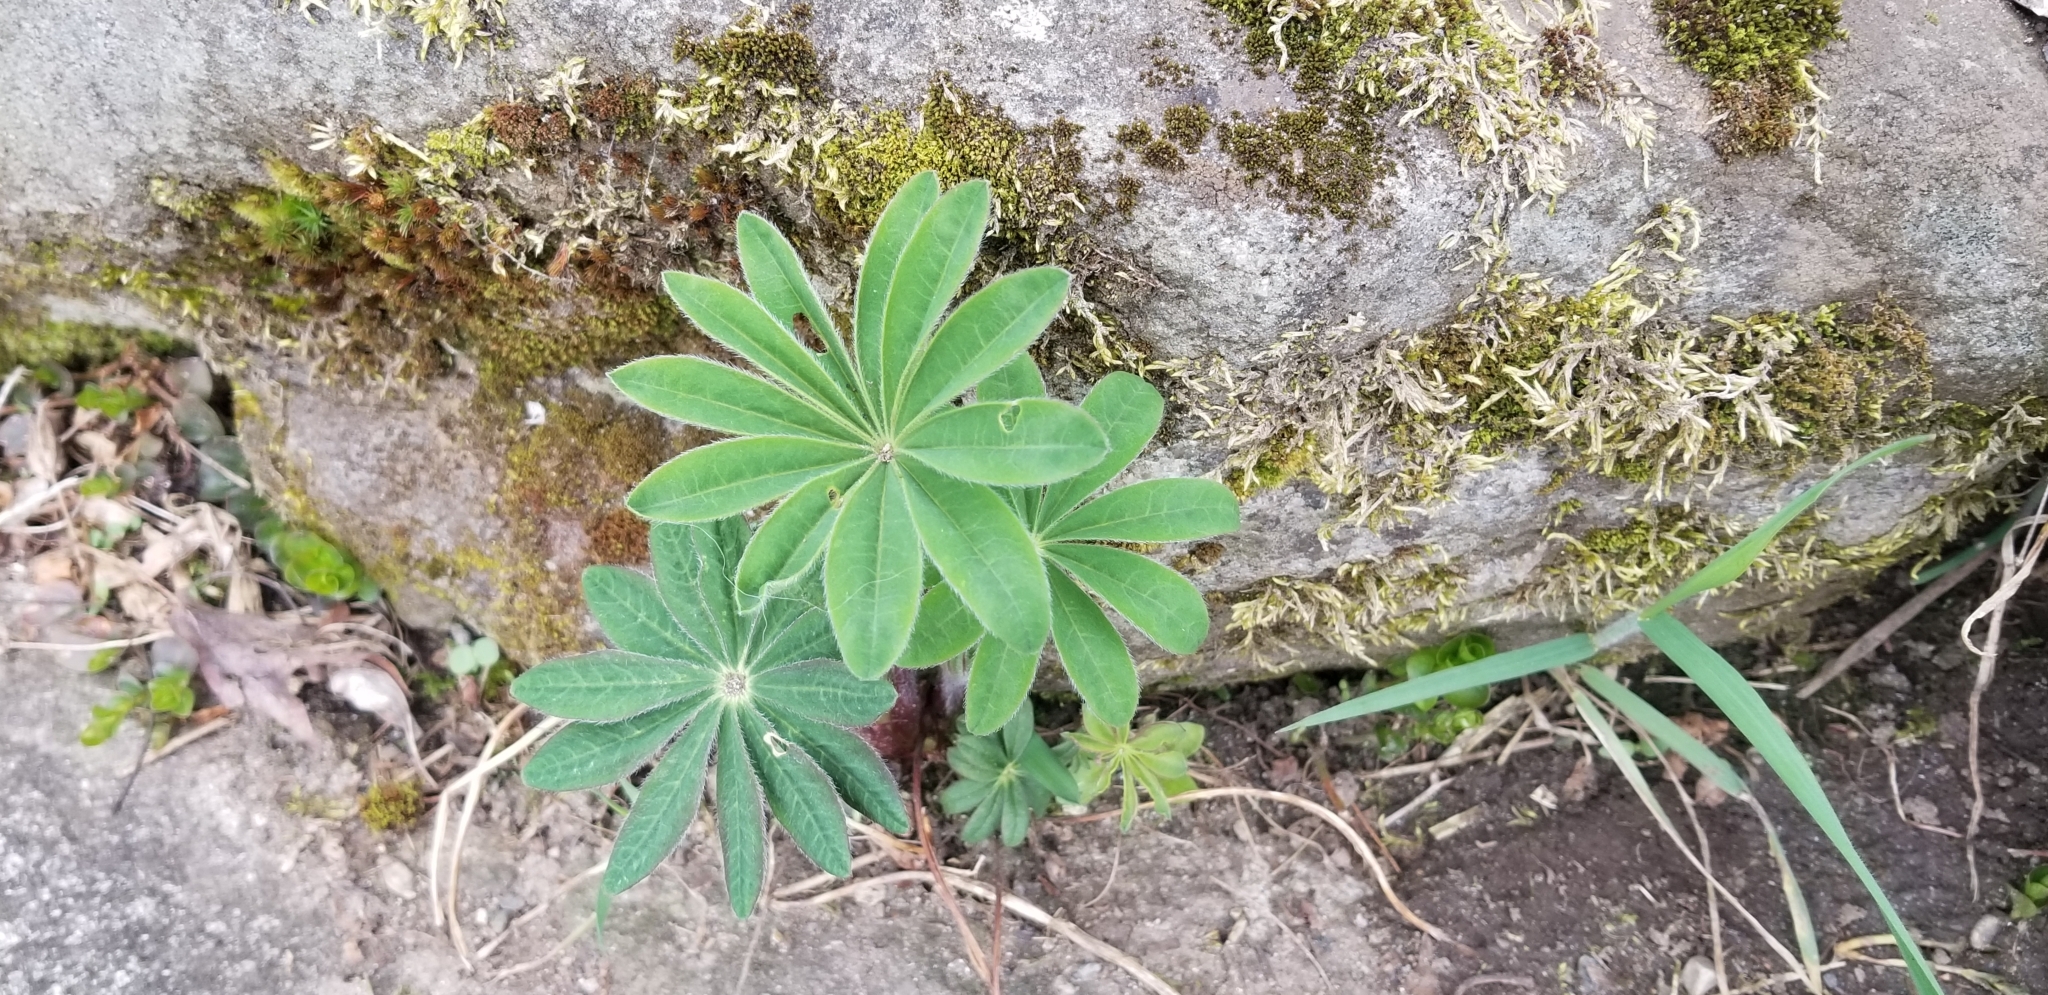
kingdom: Plantae
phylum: Tracheophyta
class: Magnoliopsida
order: Fabales
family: Fabaceae
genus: Lupinus
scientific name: Lupinus polyphyllus
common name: Garden lupin
